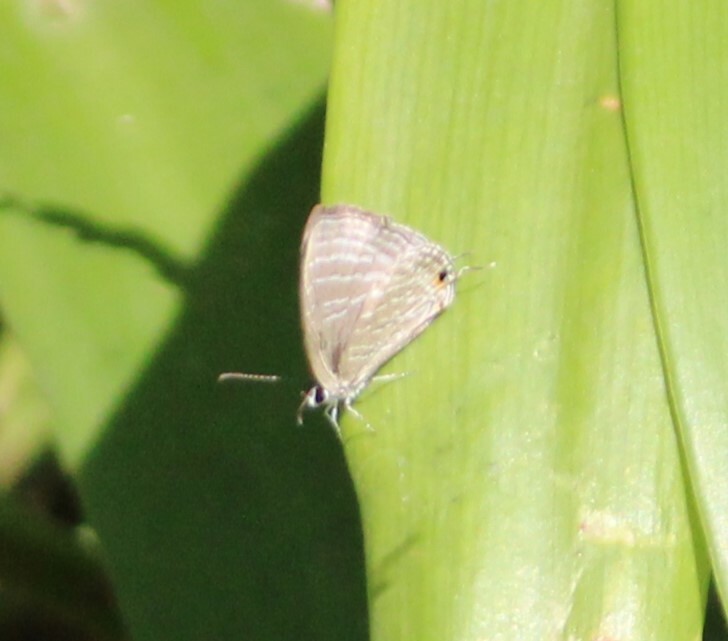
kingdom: Animalia
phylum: Arthropoda
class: Insecta
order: Lepidoptera
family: Lycaenidae
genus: Jamides
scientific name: Jamides celeno
